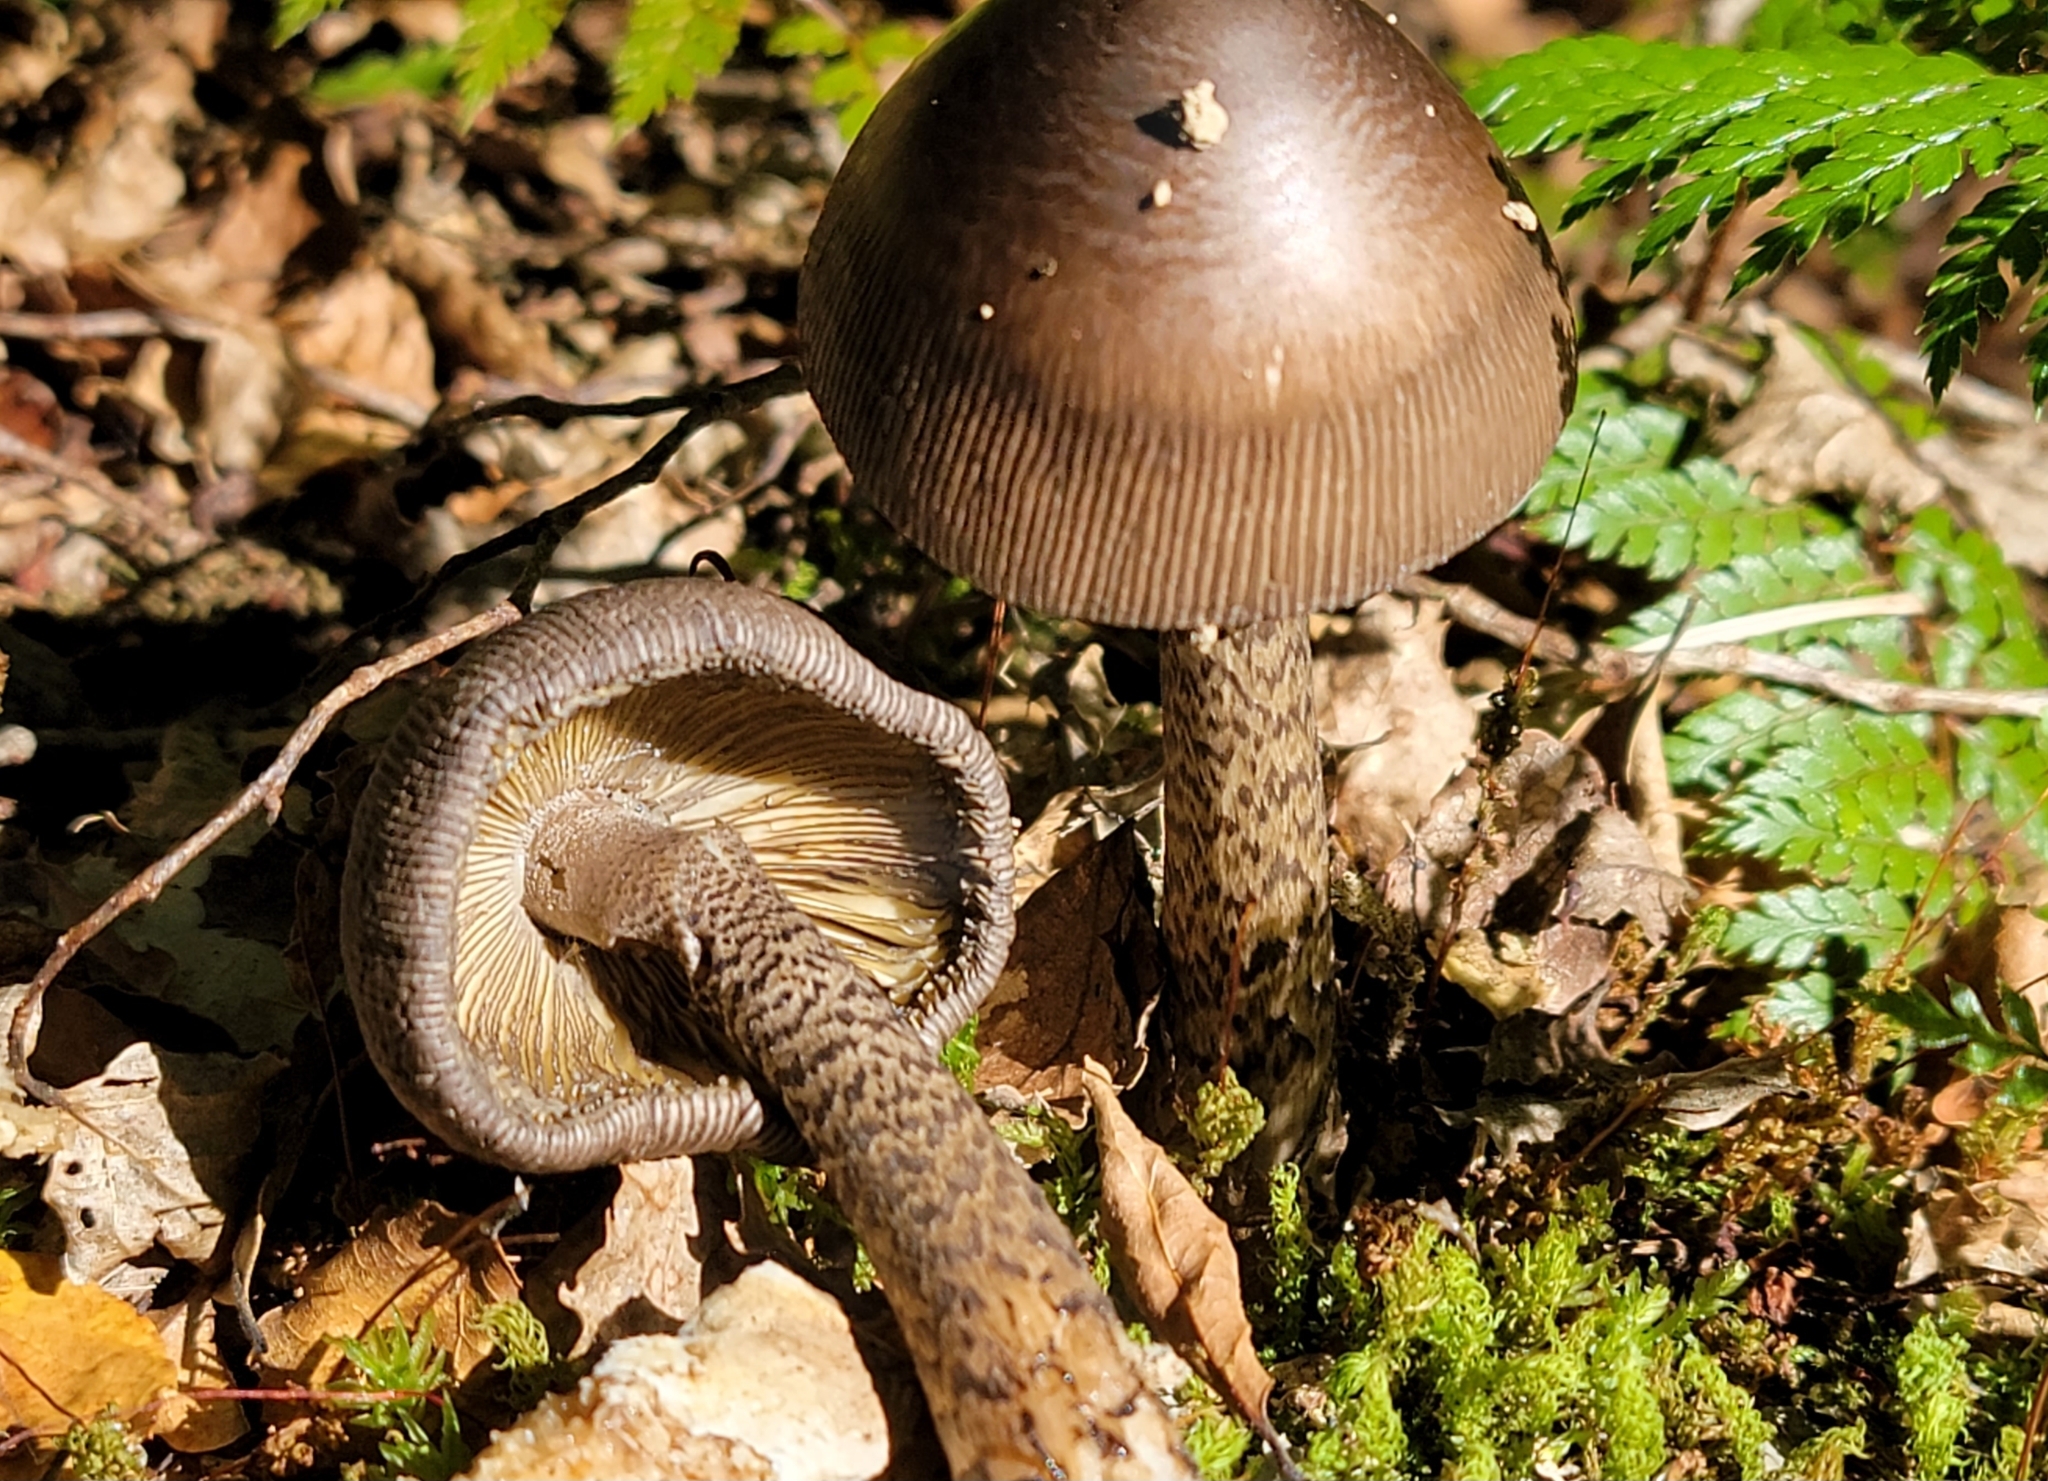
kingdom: Fungi
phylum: Basidiomycota
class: Agaricomycetes
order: Agaricales
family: Amanitaceae
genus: Amanita
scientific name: Amanita pekeoides
